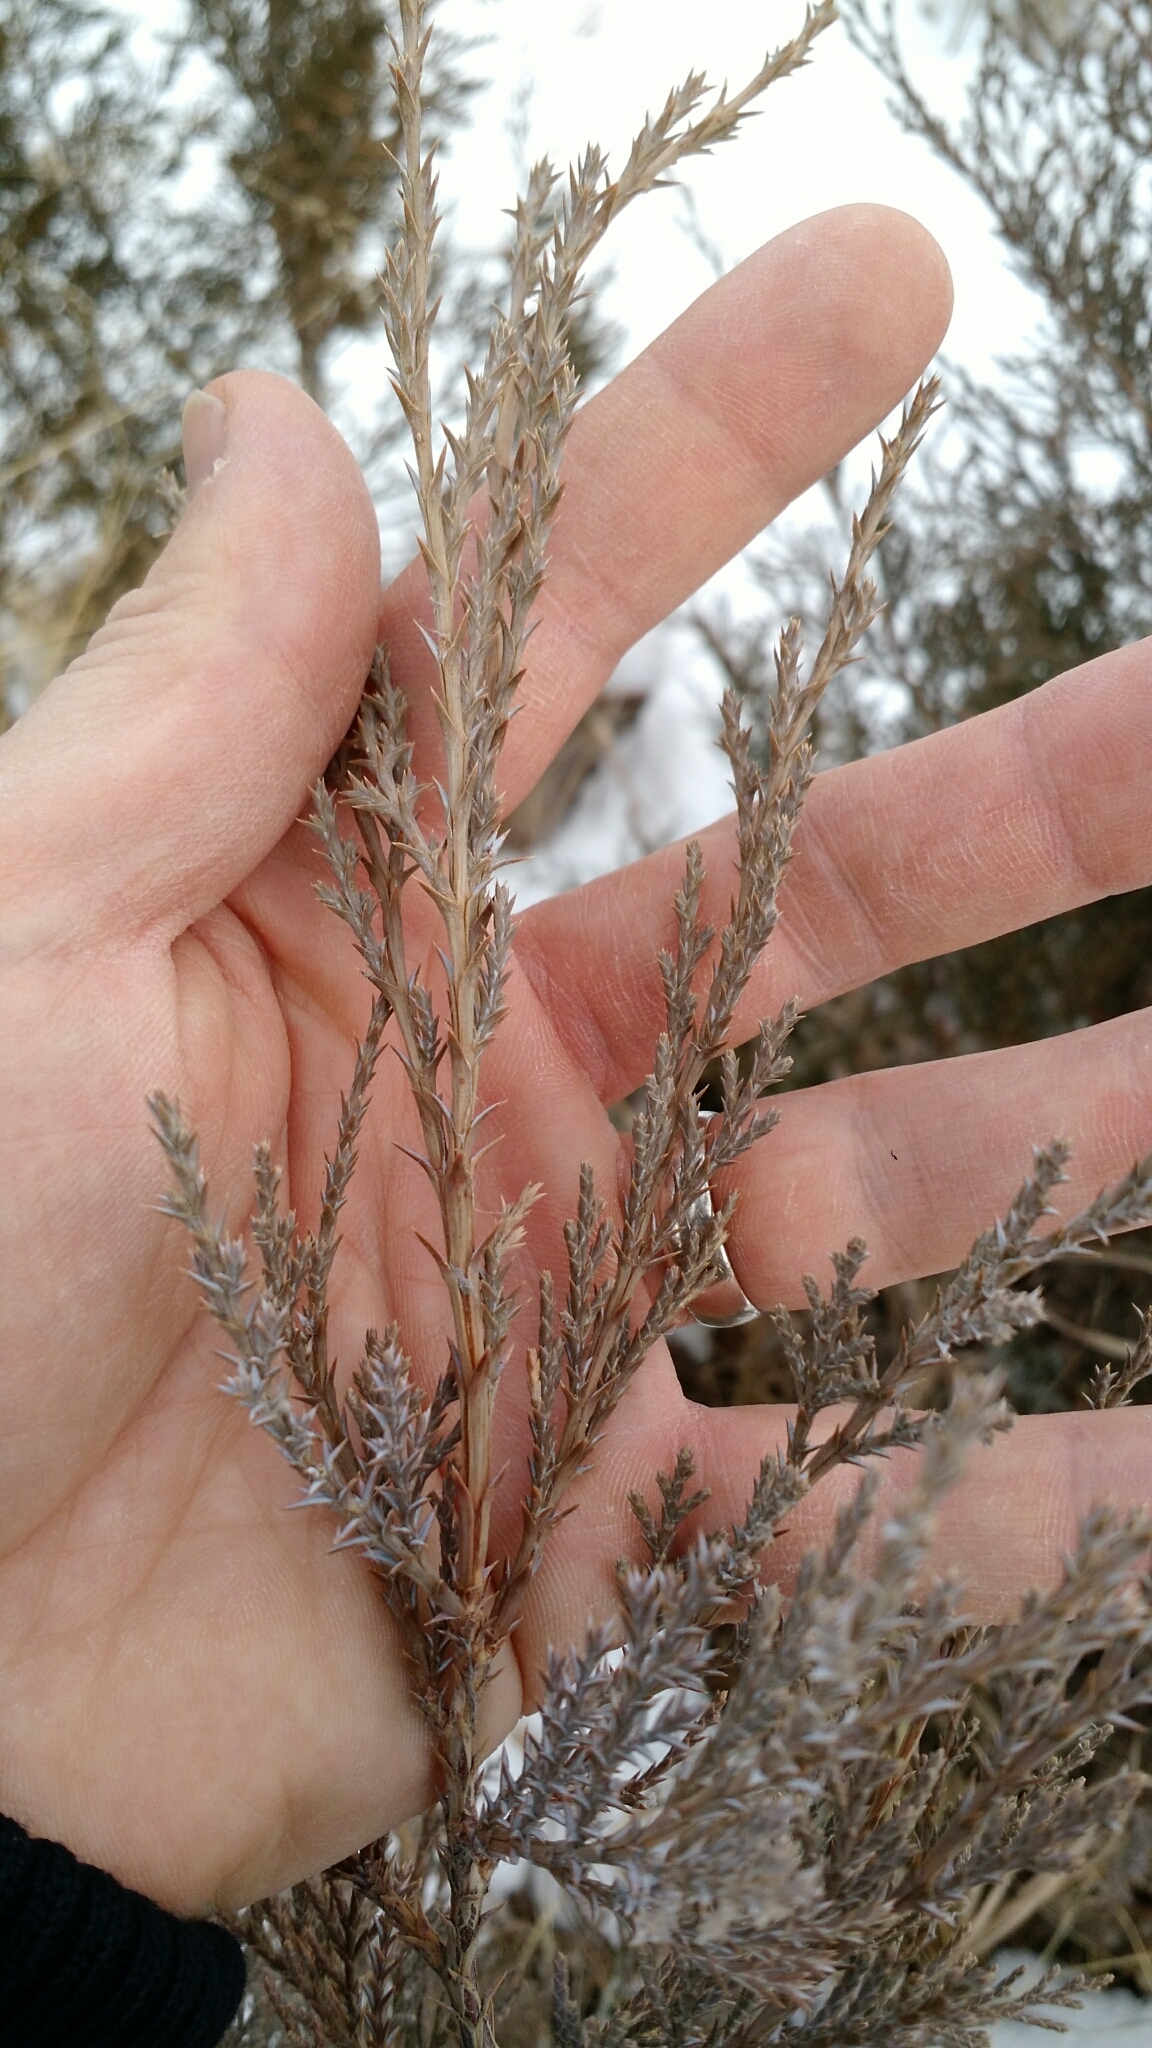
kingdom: Plantae
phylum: Tracheophyta
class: Pinopsida
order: Pinales
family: Cupressaceae
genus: Juniperus
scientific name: Juniperus scopulorum
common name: Rocky mountain juniper
